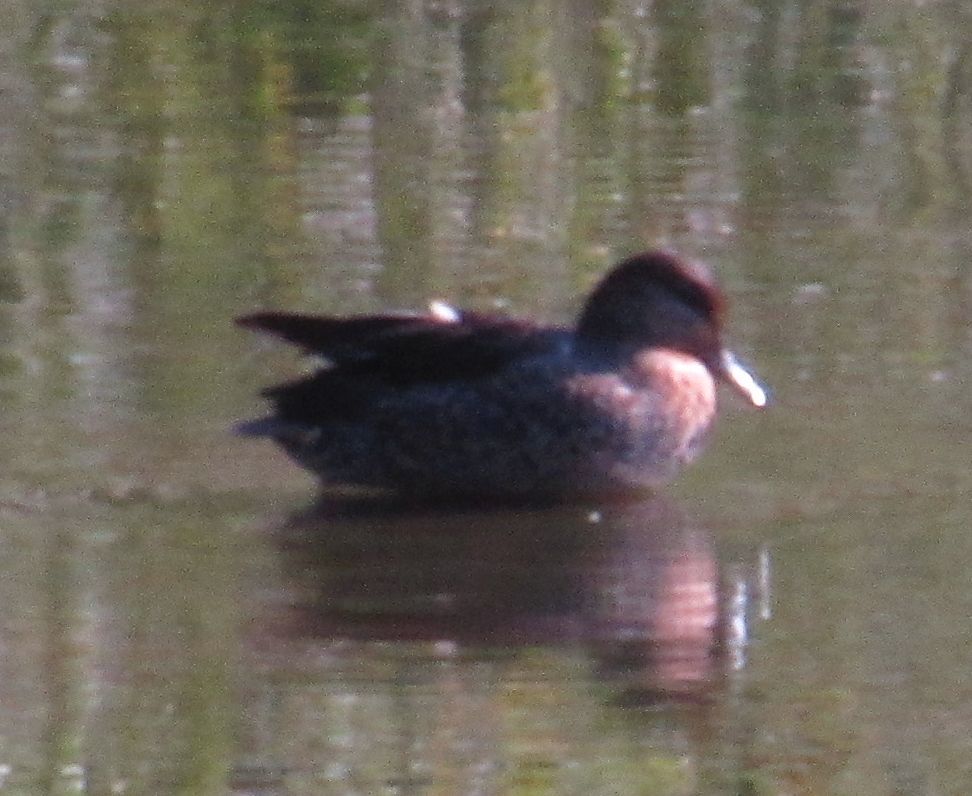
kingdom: Animalia
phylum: Chordata
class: Aves
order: Anseriformes
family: Anatidae
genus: Anas
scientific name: Anas crecca
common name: Eurasian teal
